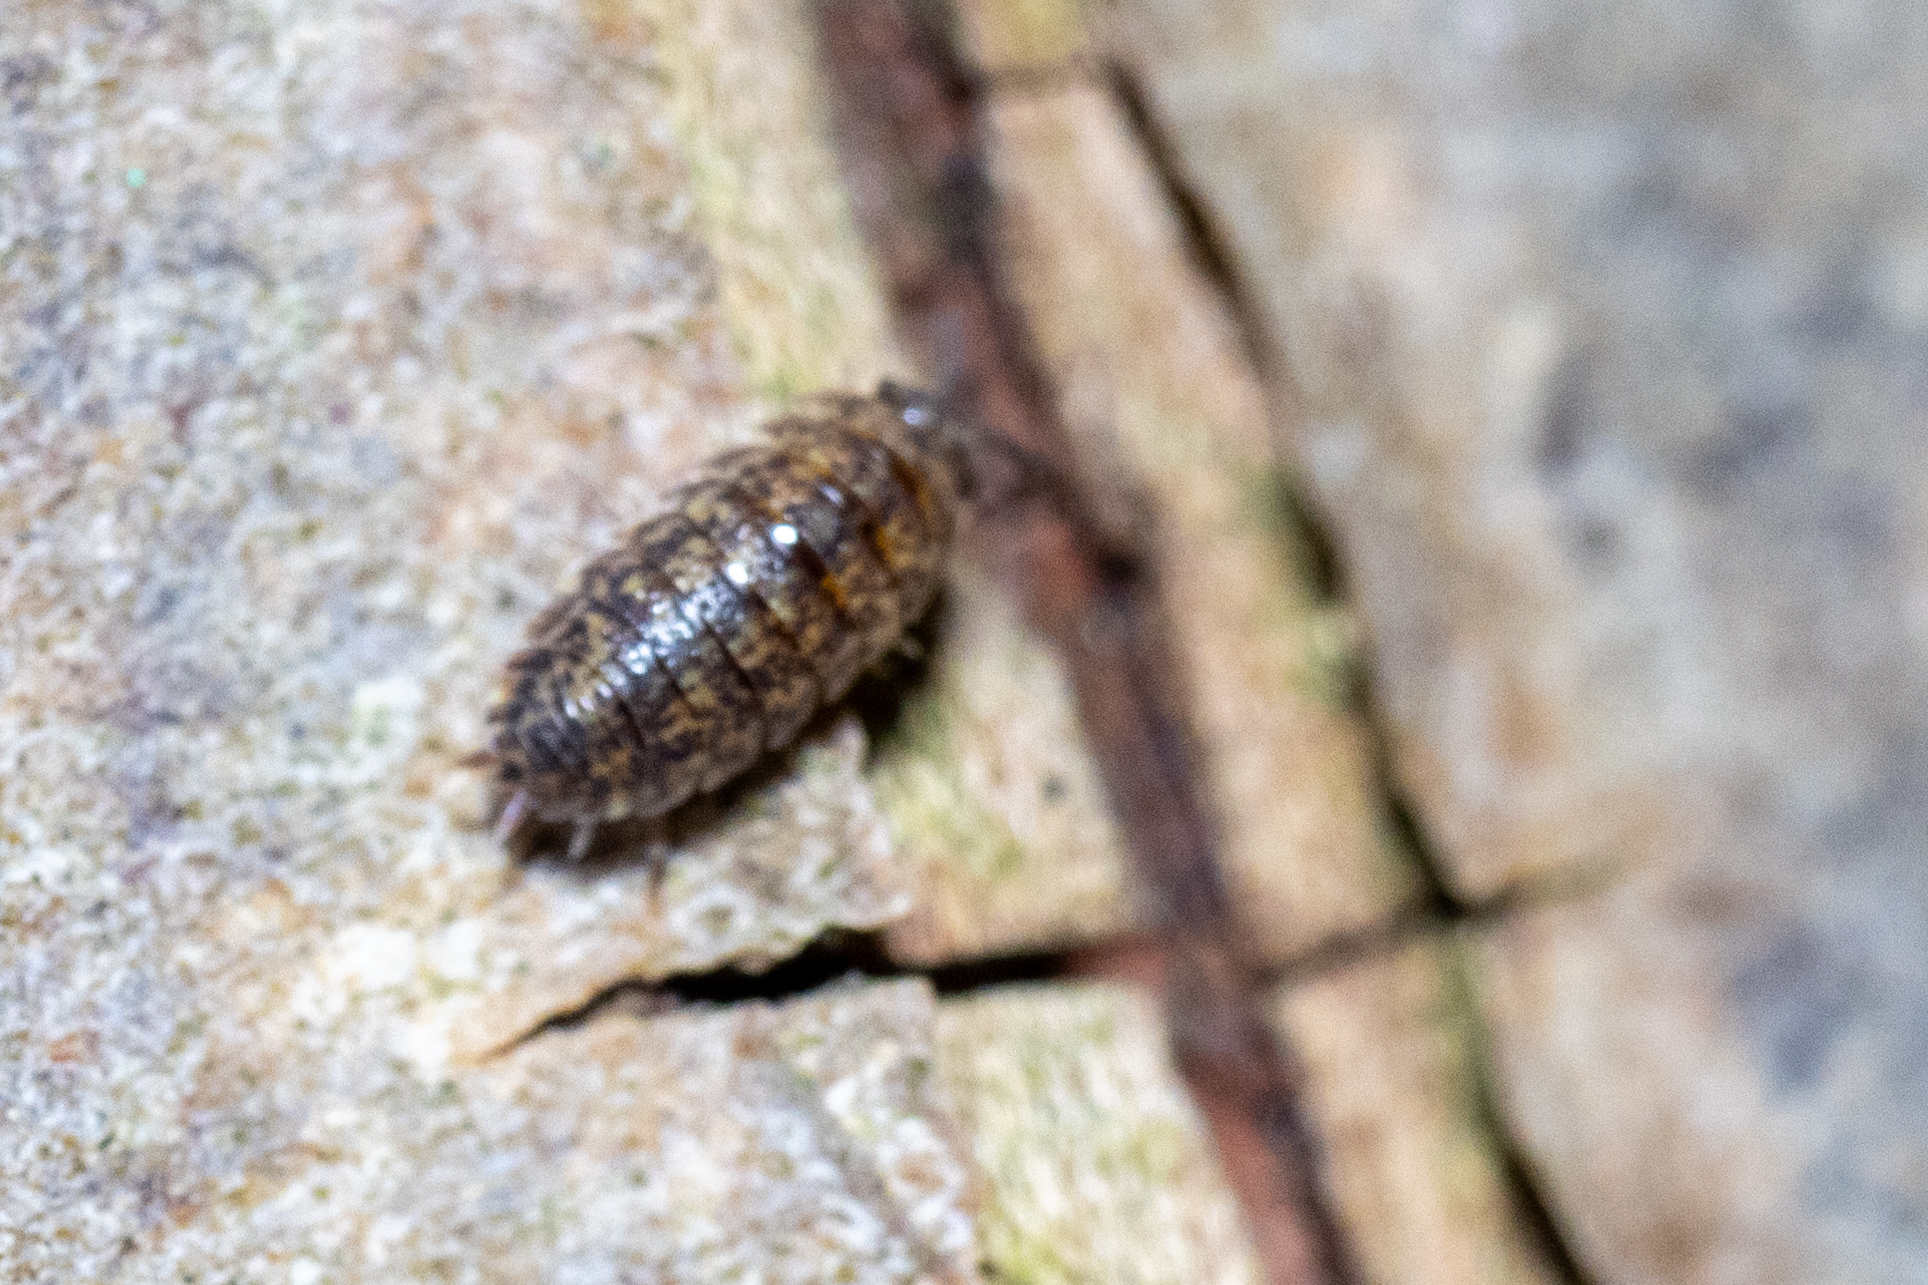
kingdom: Animalia
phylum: Arthropoda
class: Malacostraca
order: Isopoda
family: Porcellionidae
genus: Porcellio
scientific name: Porcellio scaber
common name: Common rough woodlouse
